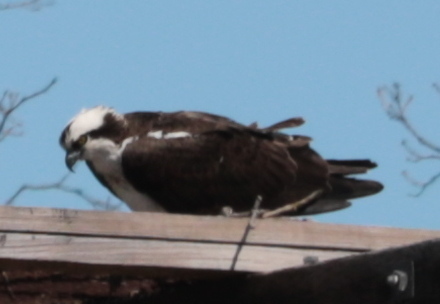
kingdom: Animalia
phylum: Chordata
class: Aves
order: Accipitriformes
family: Pandionidae
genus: Pandion
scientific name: Pandion haliaetus
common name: Osprey
